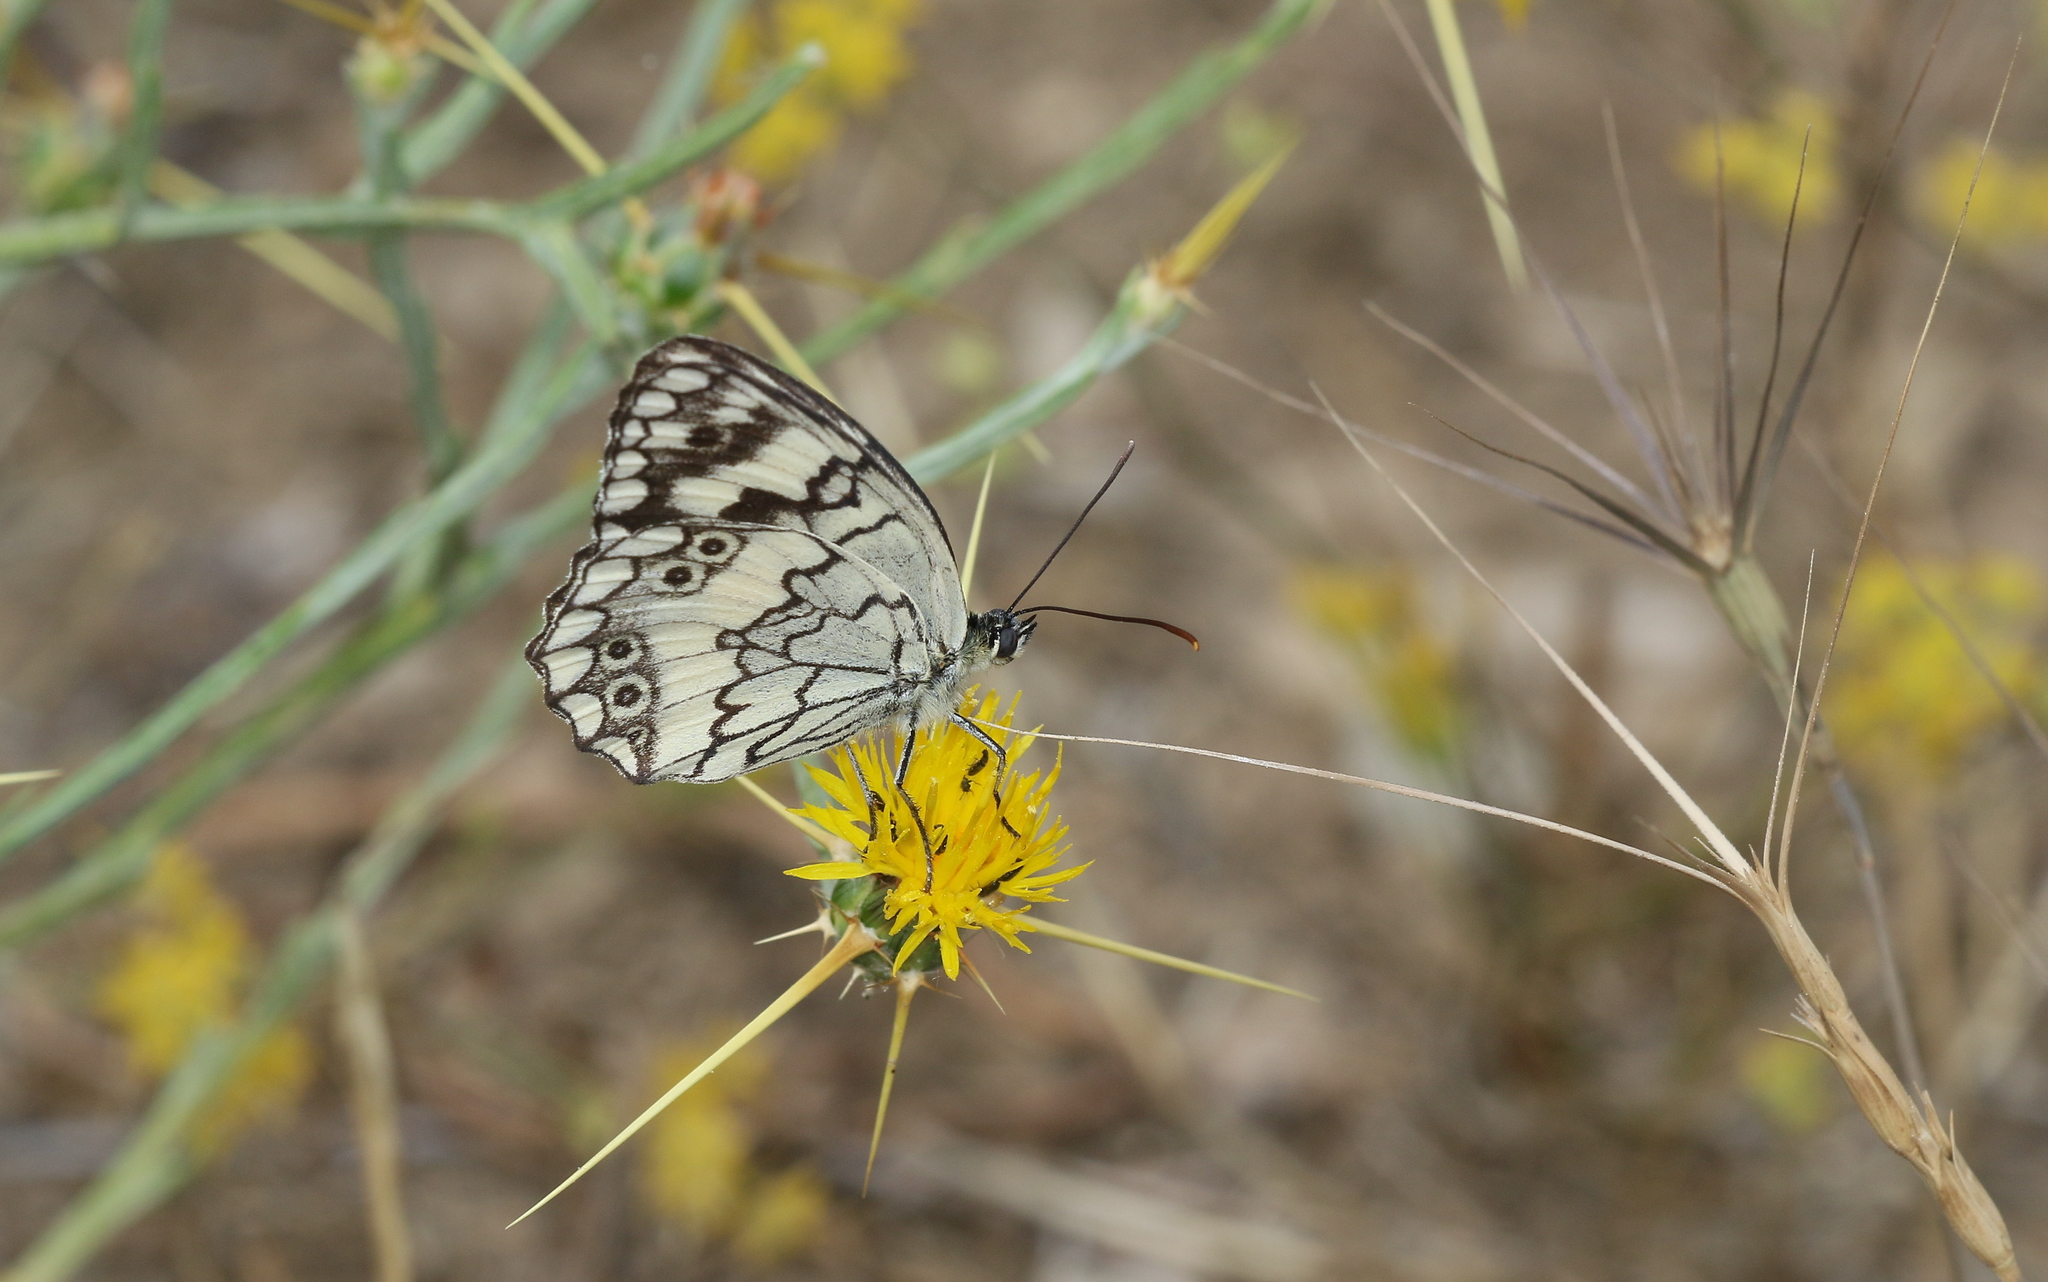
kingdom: Animalia
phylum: Arthropoda
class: Insecta
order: Lepidoptera
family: Nymphalidae
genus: Melanargia
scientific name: Melanargia larissa
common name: Balkan marbled white
